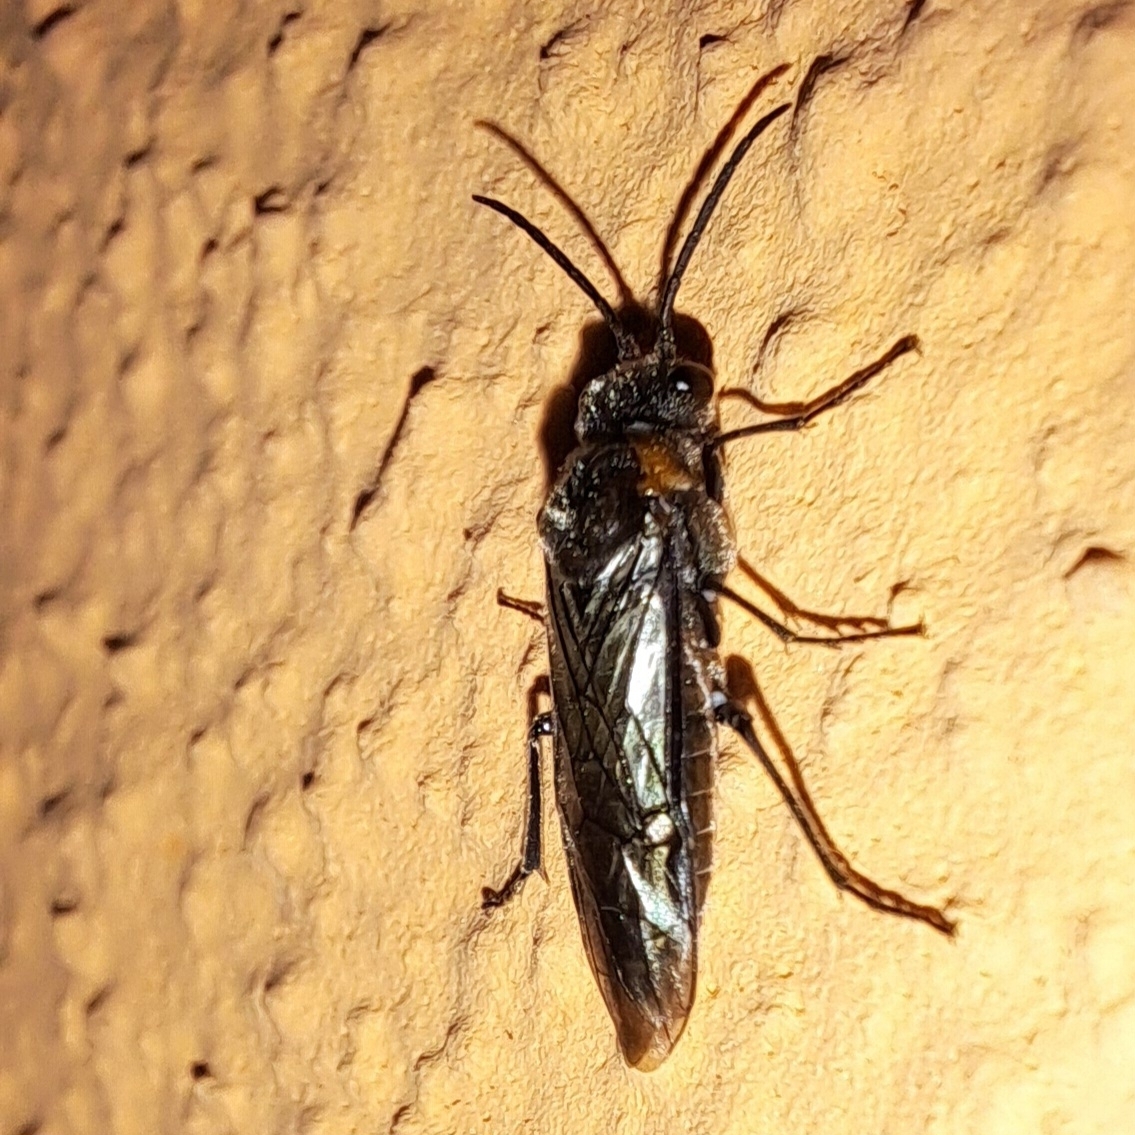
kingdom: Animalia
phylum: Arthropoda
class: Insecta
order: Hymenoptera
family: Tenthredinidae
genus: Dolerus
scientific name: Dolerus haematodes
